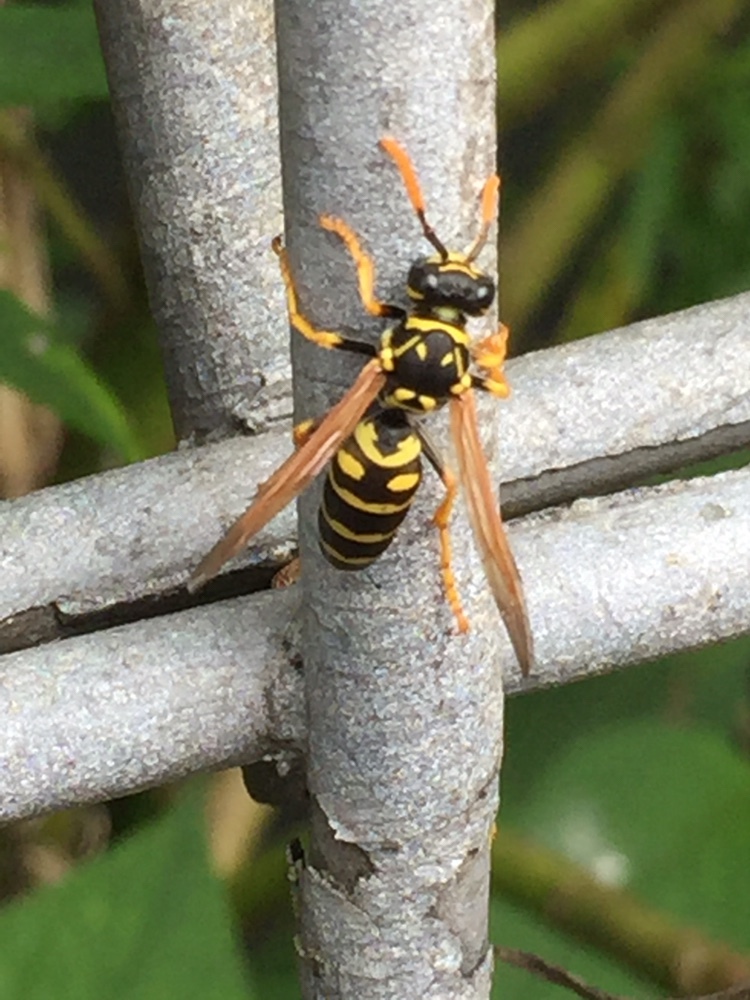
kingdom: Animalia
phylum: Arthropoda
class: Insecta
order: Hymenoptera
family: Eumenidae
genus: Polistes
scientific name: Polistes dominula
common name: Paper wasp
